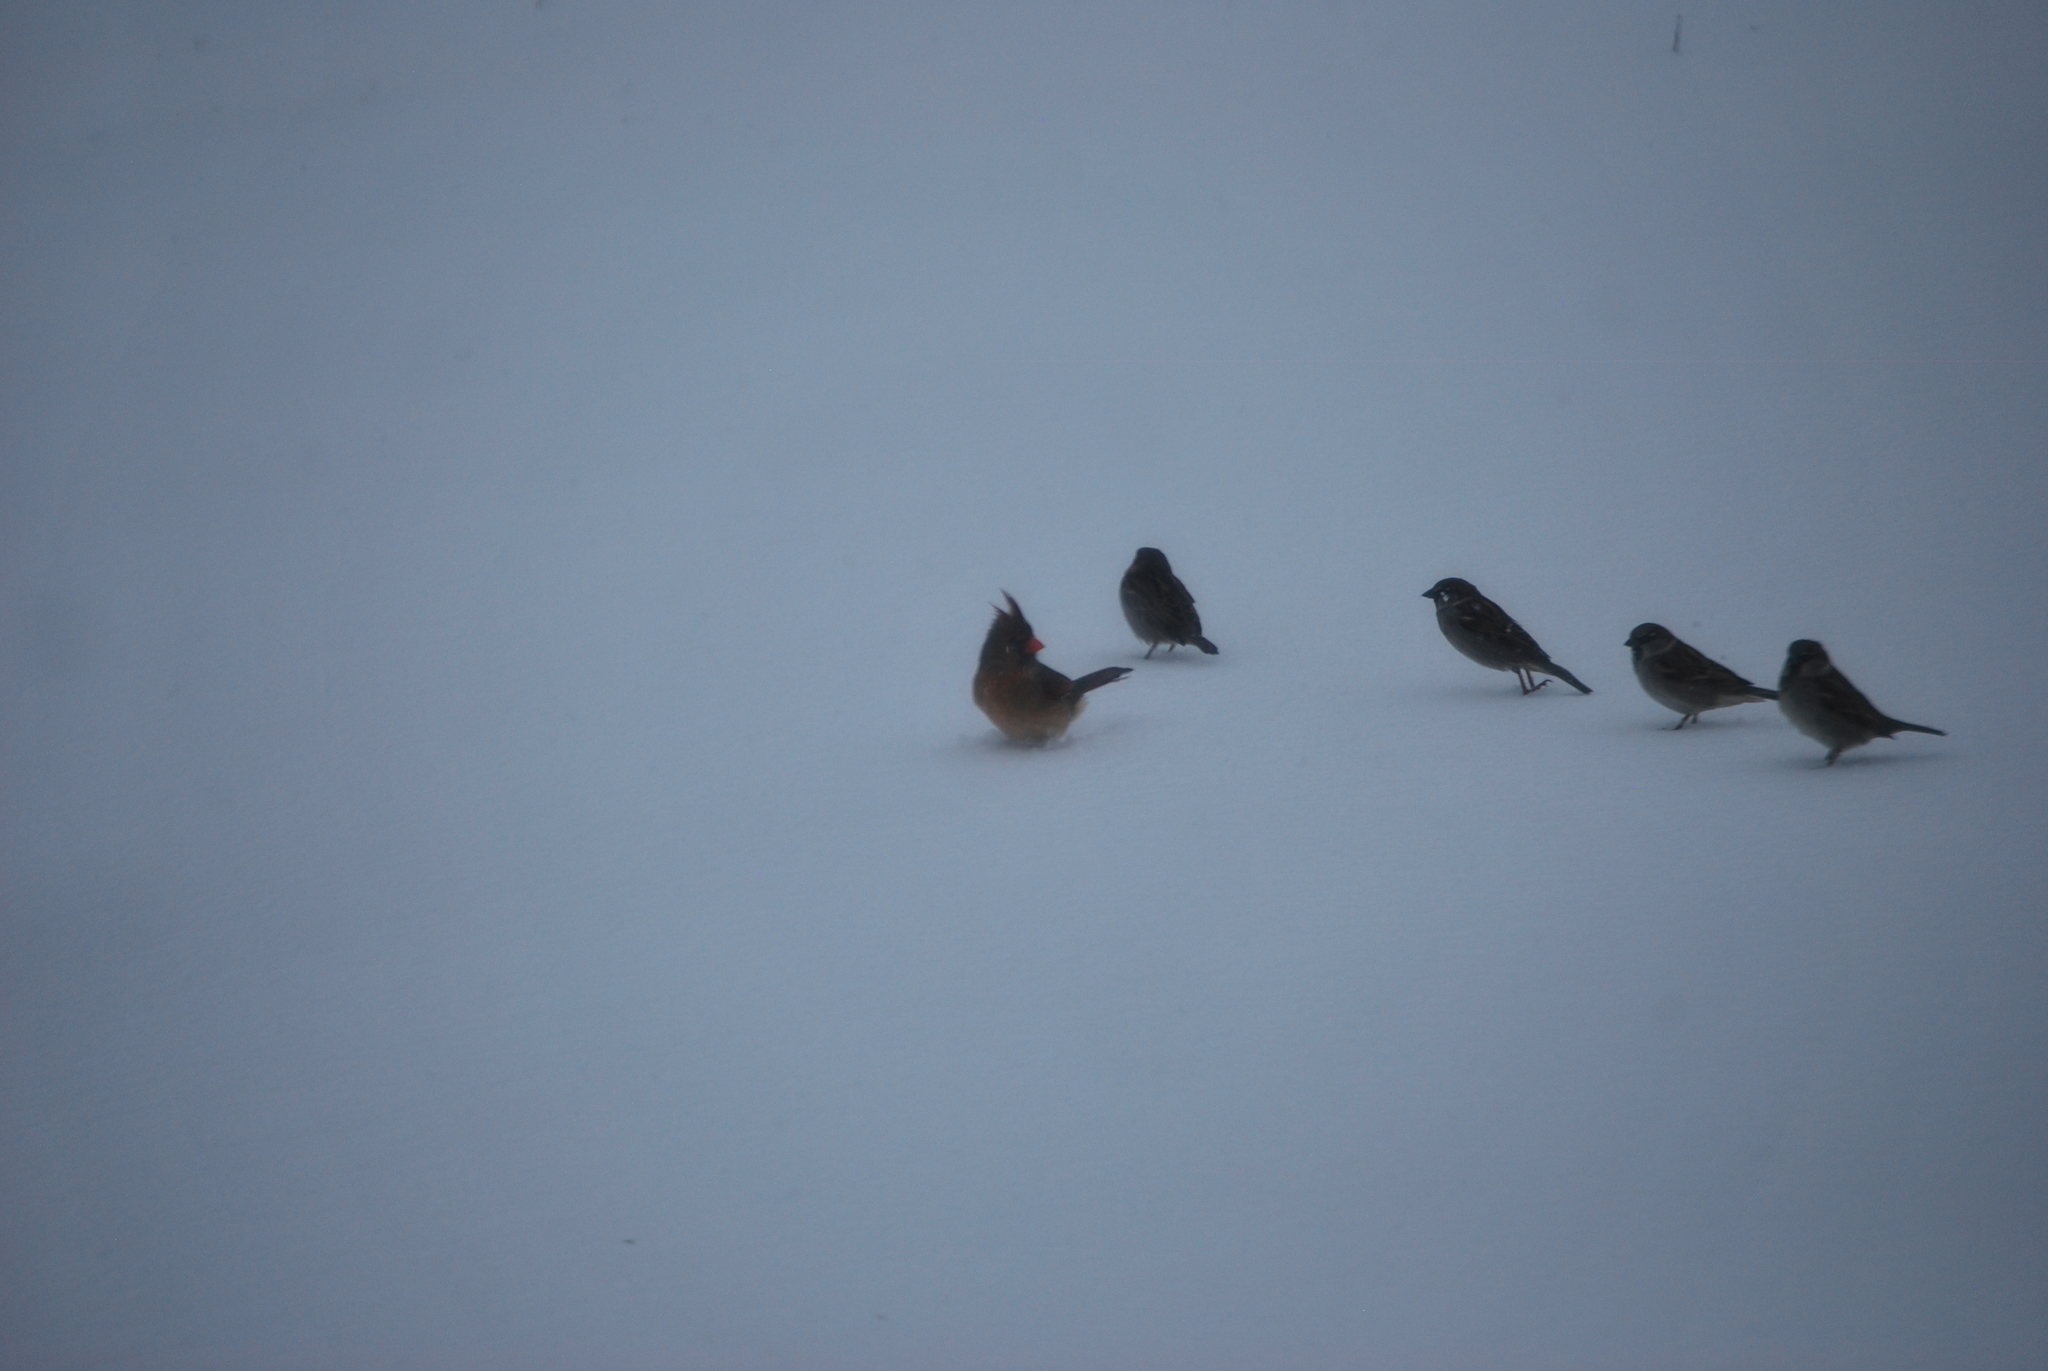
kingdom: Animalia
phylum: Chordata
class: Aves
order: Passeriformes
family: Cardinalidae
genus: Cardinalis
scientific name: Cardinalis cardinalis
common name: Northern cardinal
